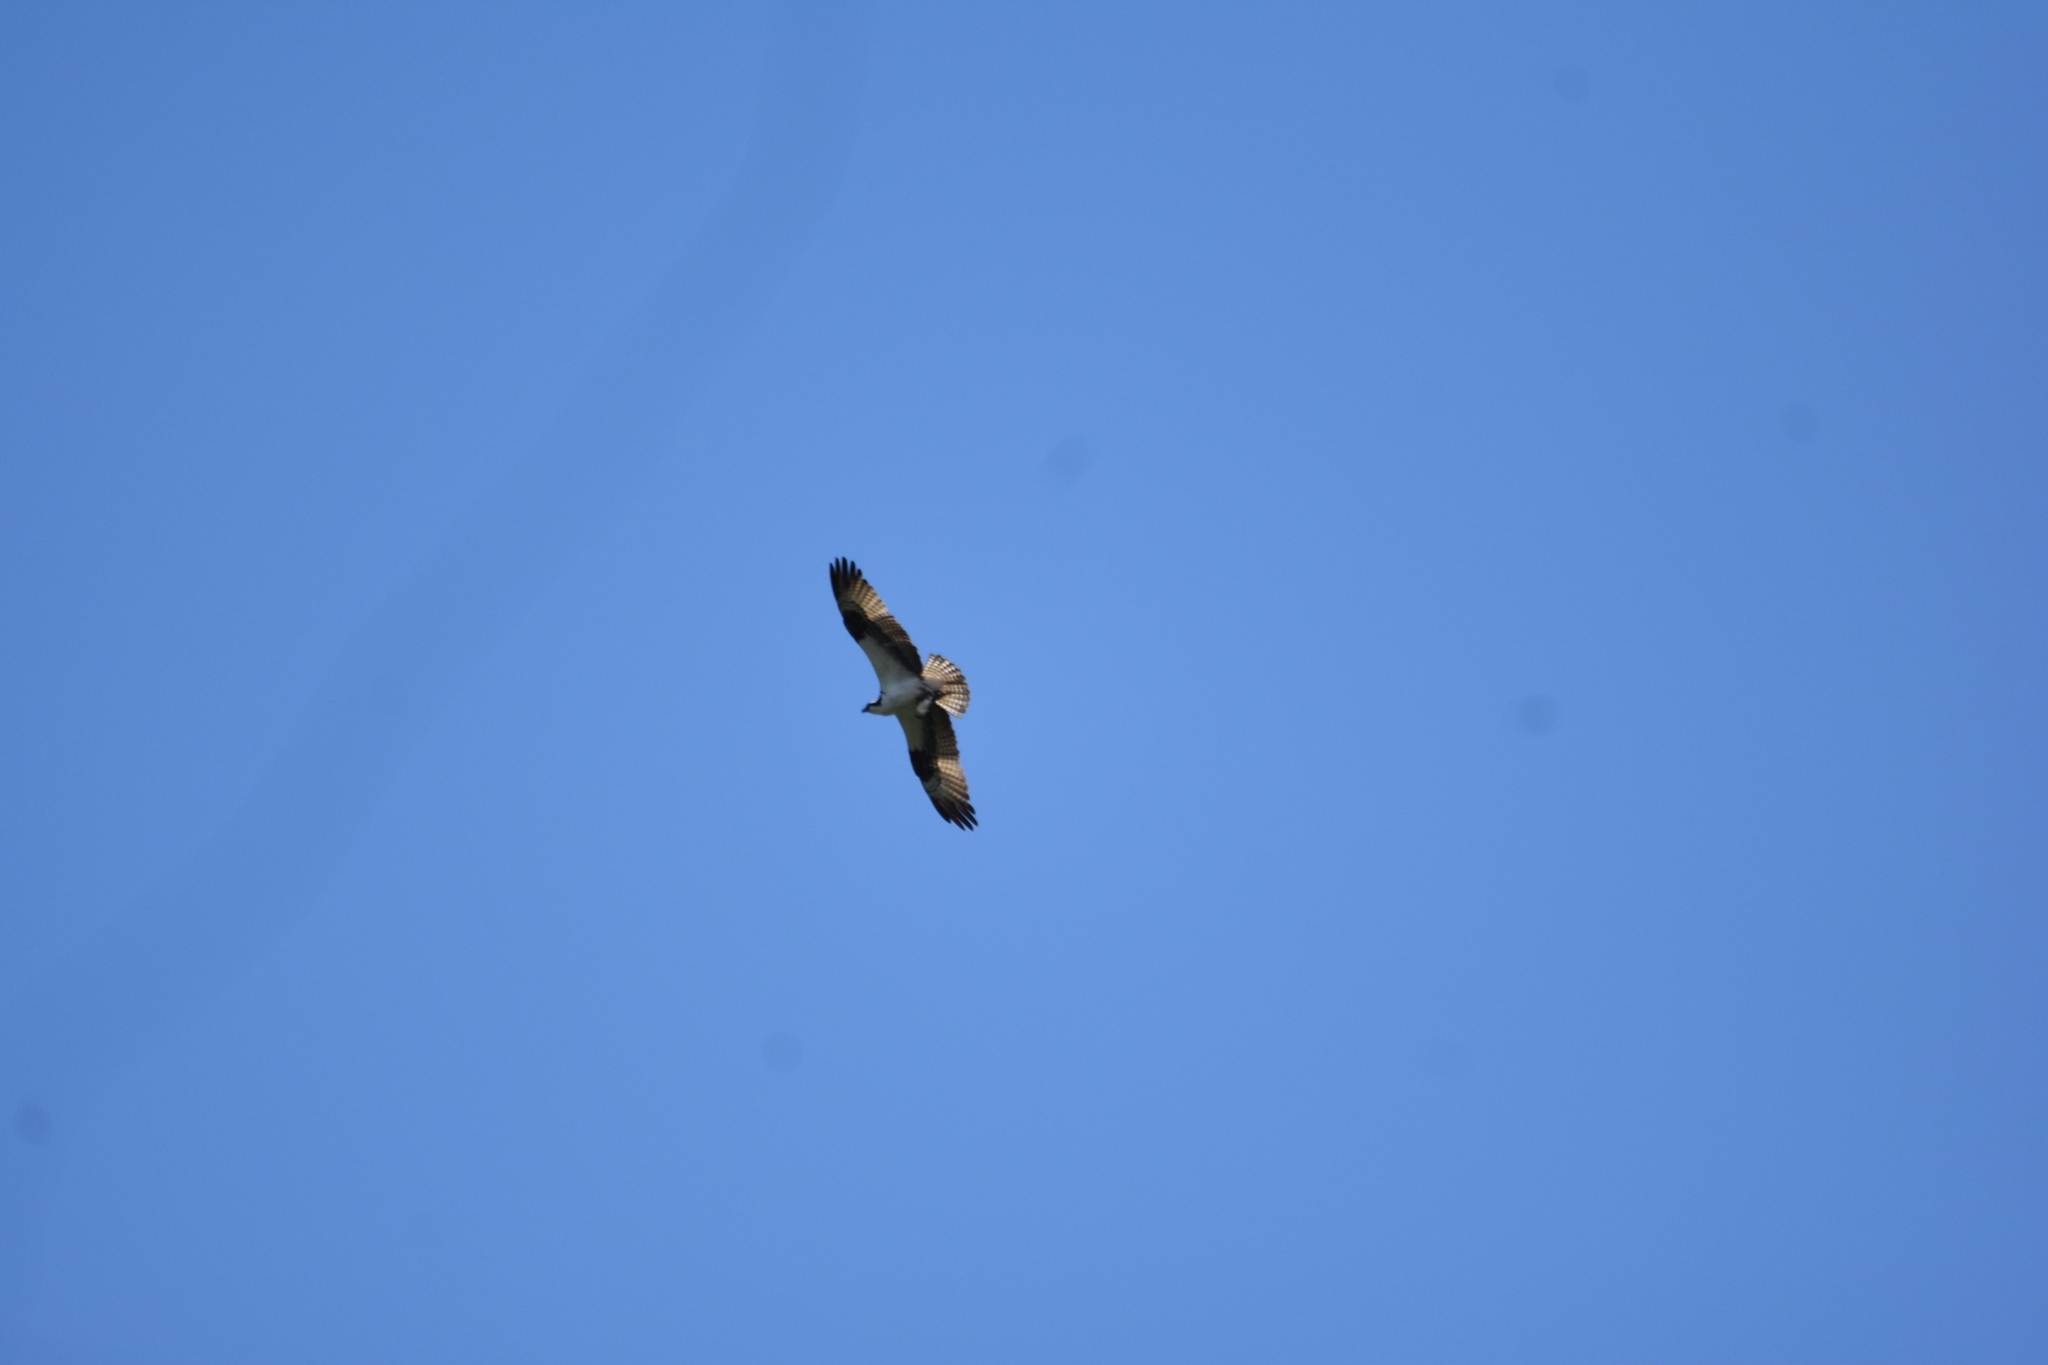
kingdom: Animalia
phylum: Chordata
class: Aves
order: Accipitriformes
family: Pandionidae
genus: Pandion
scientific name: Pandion haliaetus
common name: Osprey
